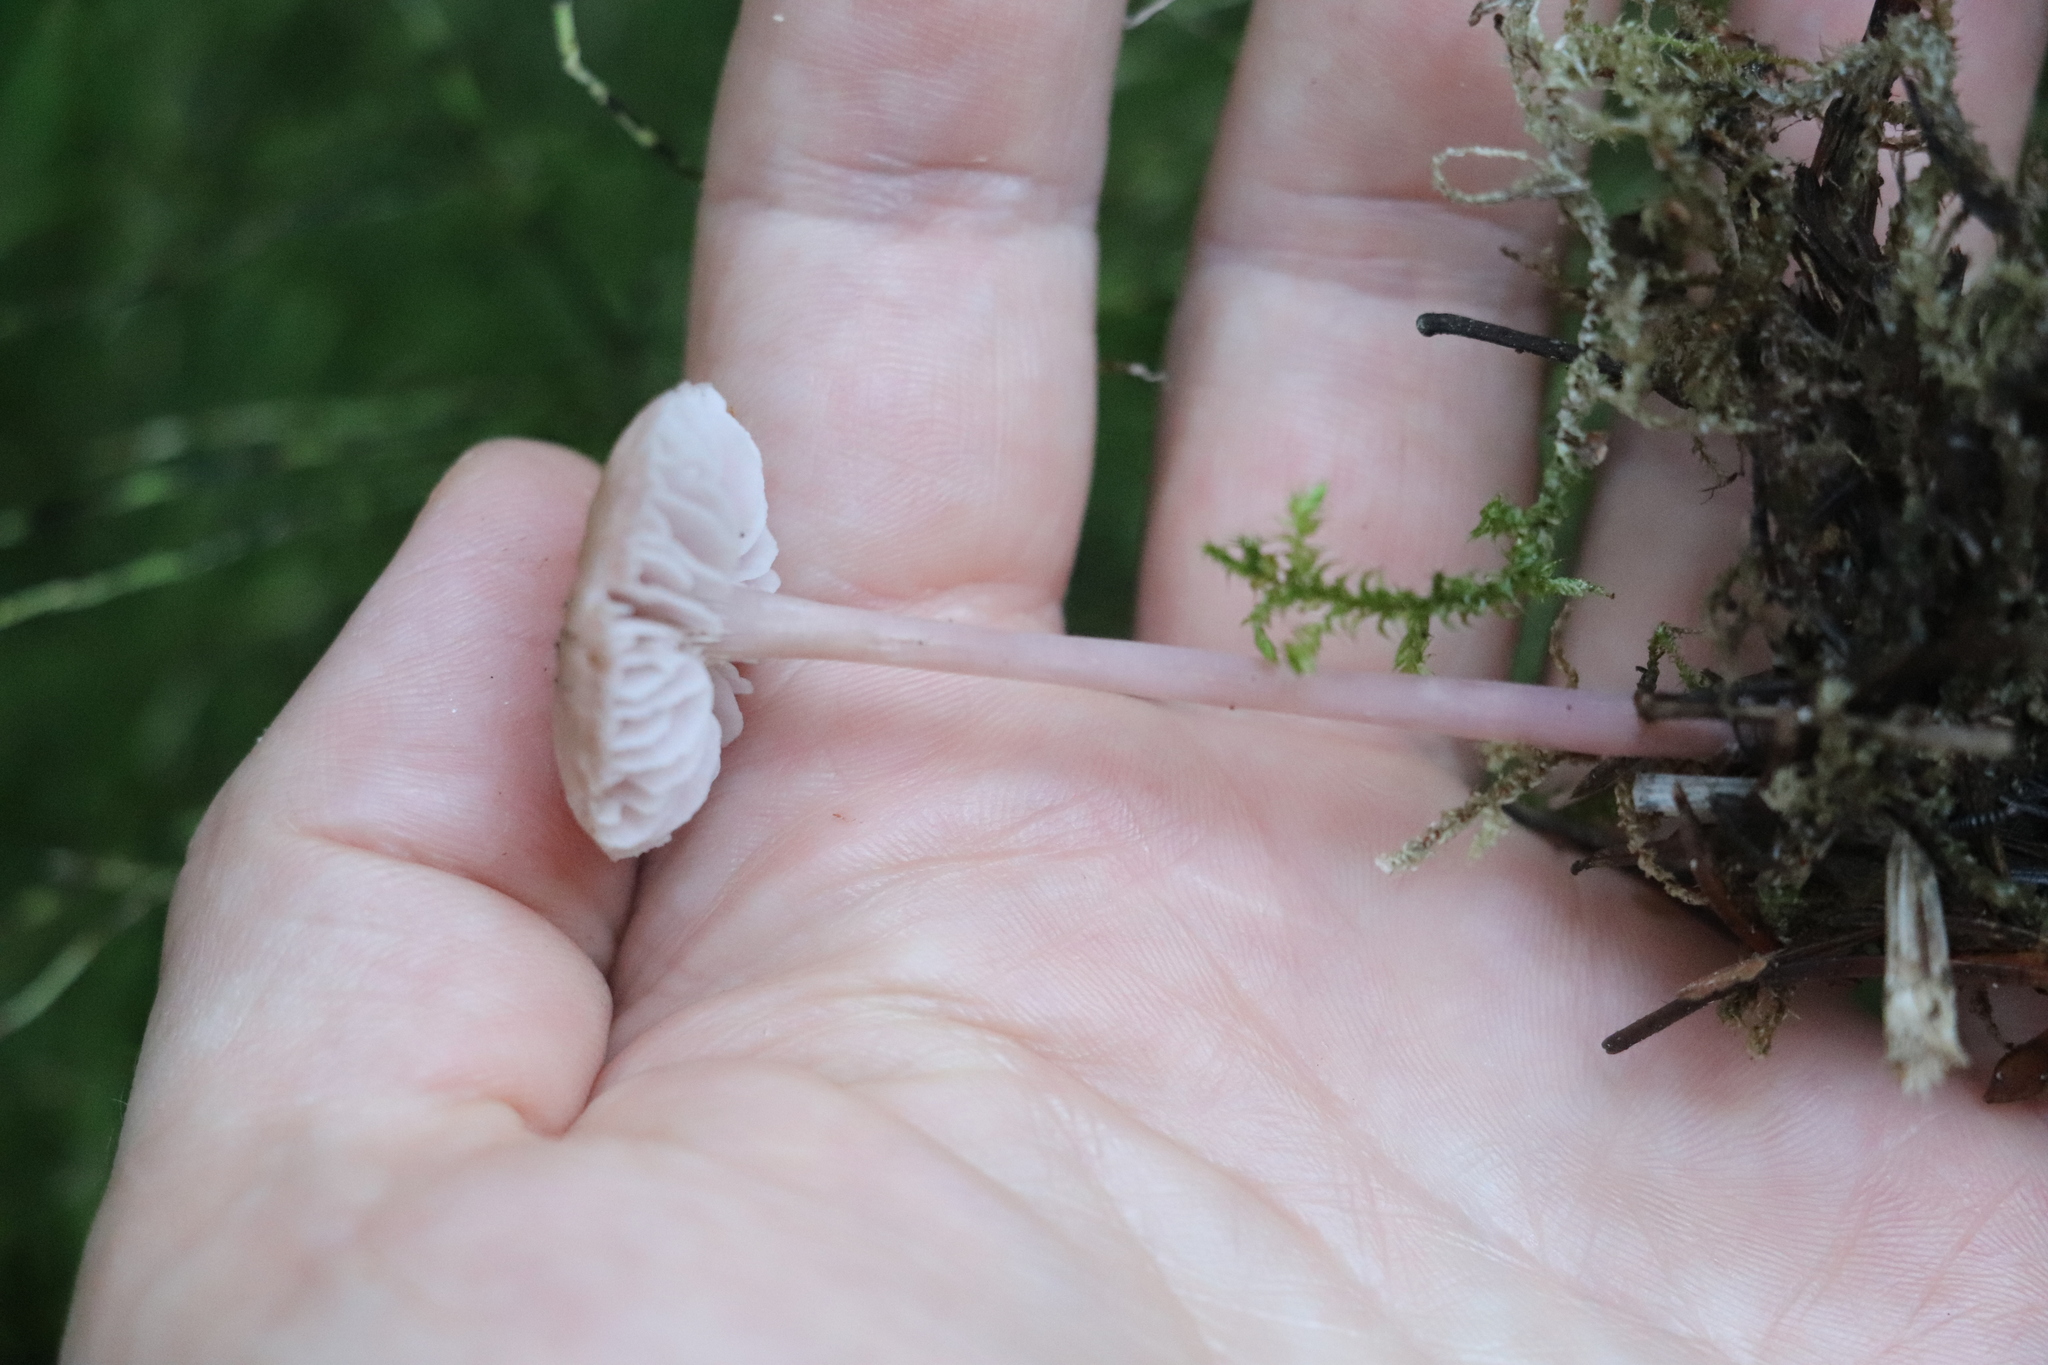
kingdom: Fungi
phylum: Basidiomycota
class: Agaricomycetes
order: Agaricales
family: Mycenaceae
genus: Mycena
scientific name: Mycena pura
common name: Lilac bonnet
